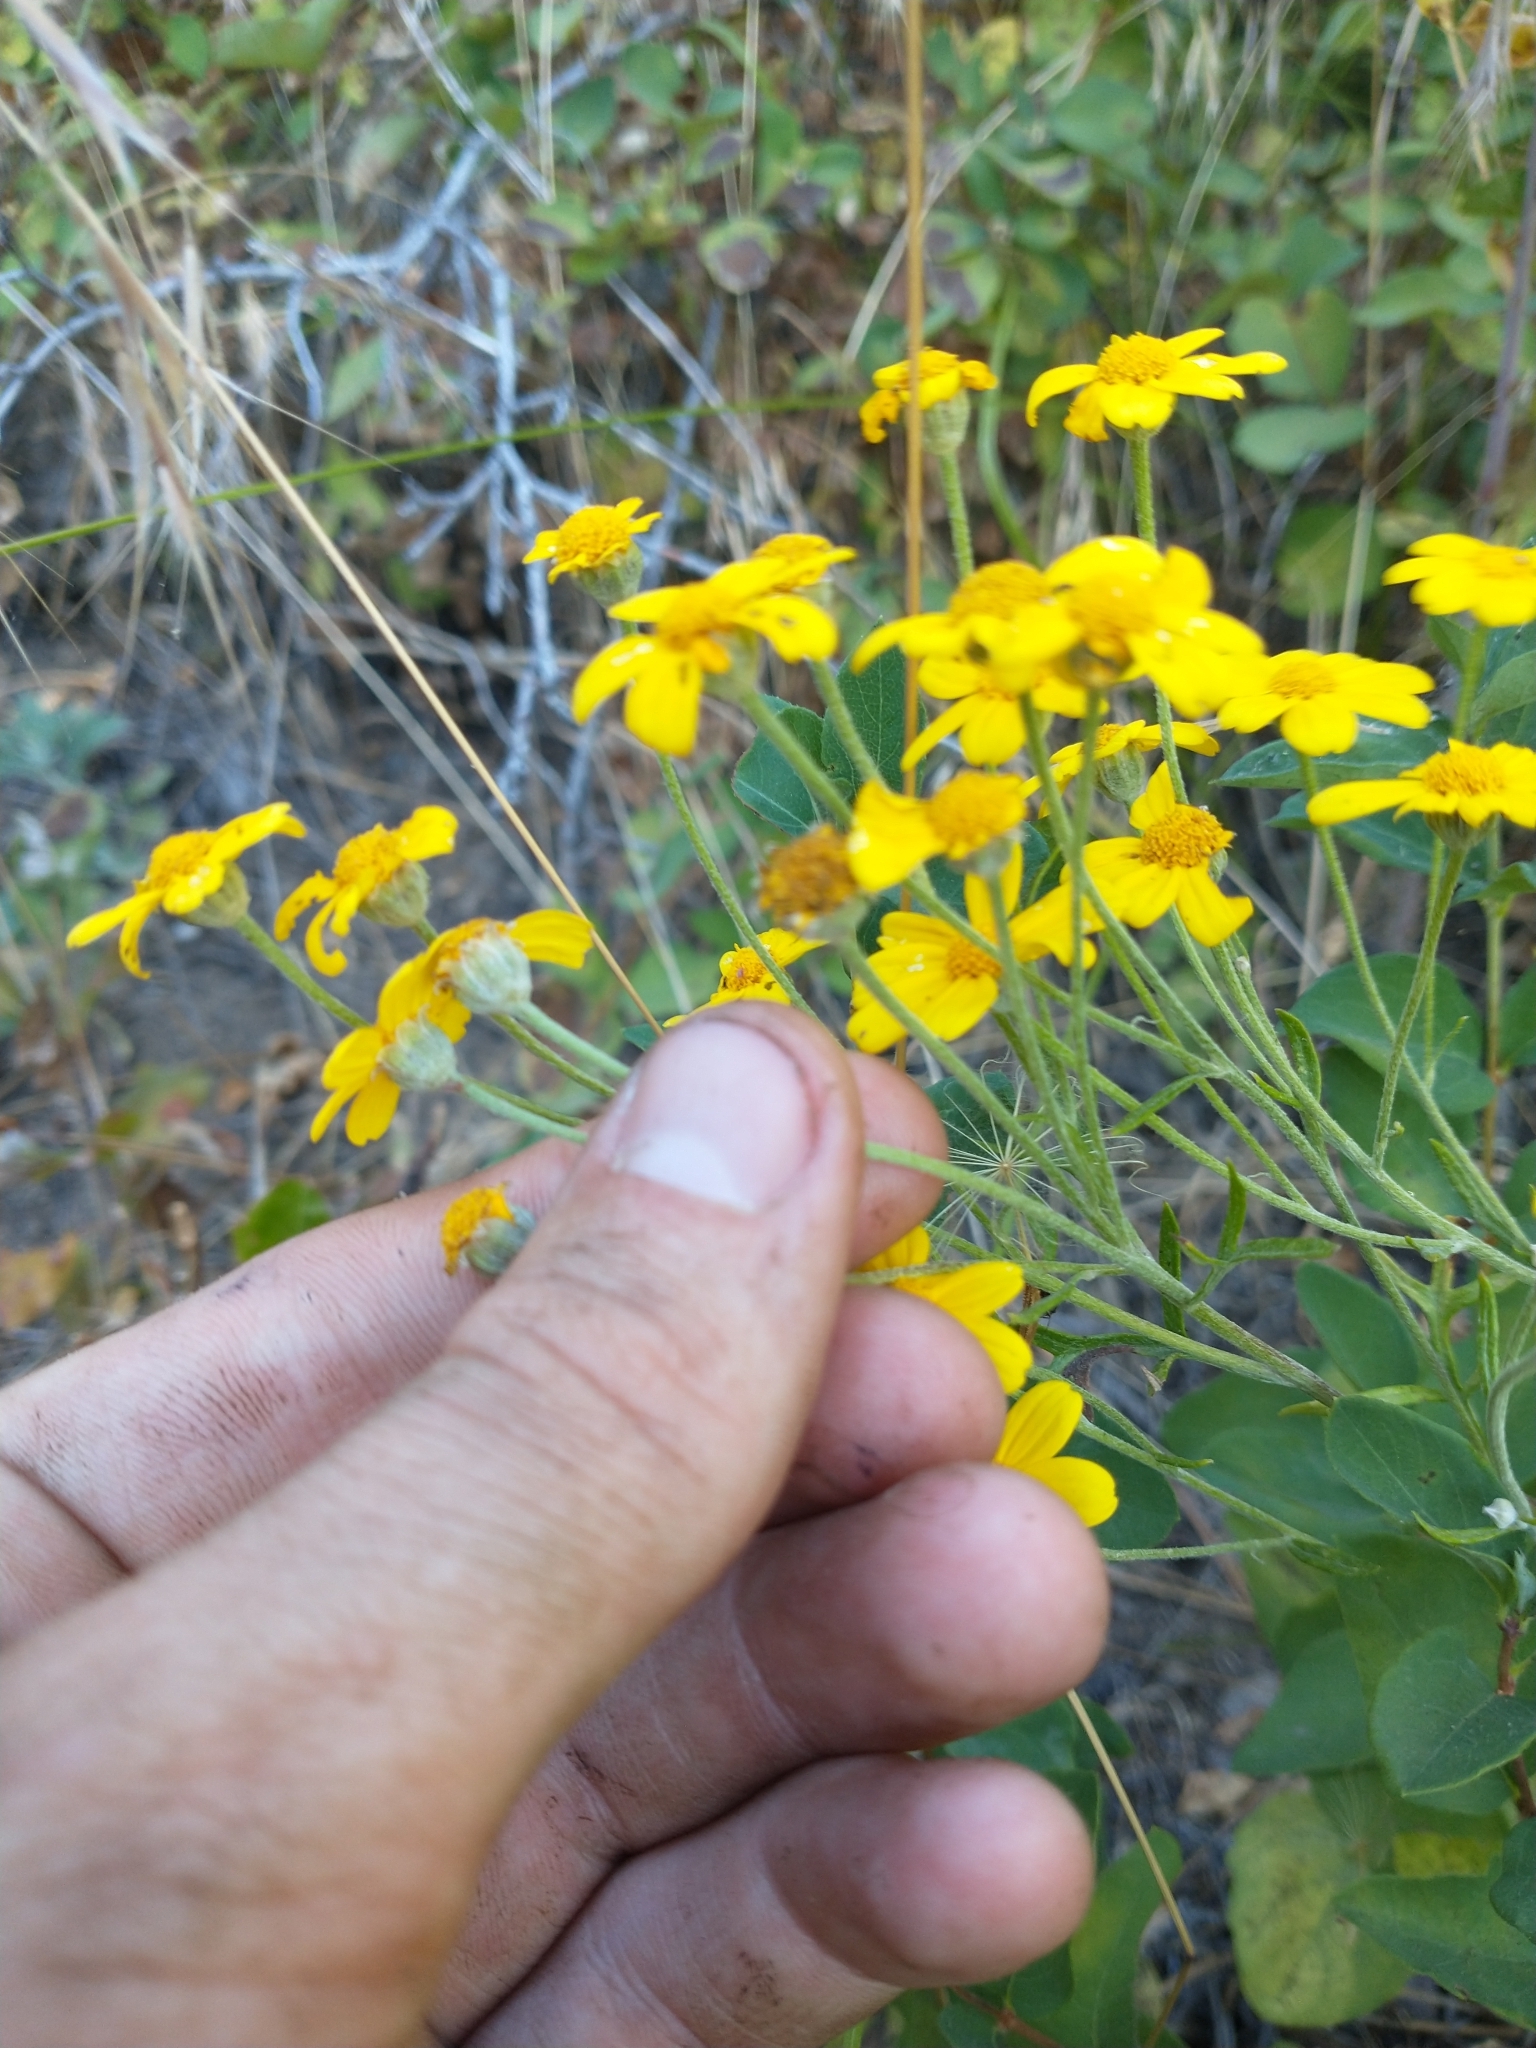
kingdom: Plantae
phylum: Tracheophyta
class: Magnoliopsida
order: Asterales
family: Asteraceae
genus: Eriophyllum
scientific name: Eriophyllum lanatum
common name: Common woolly-sunflower
